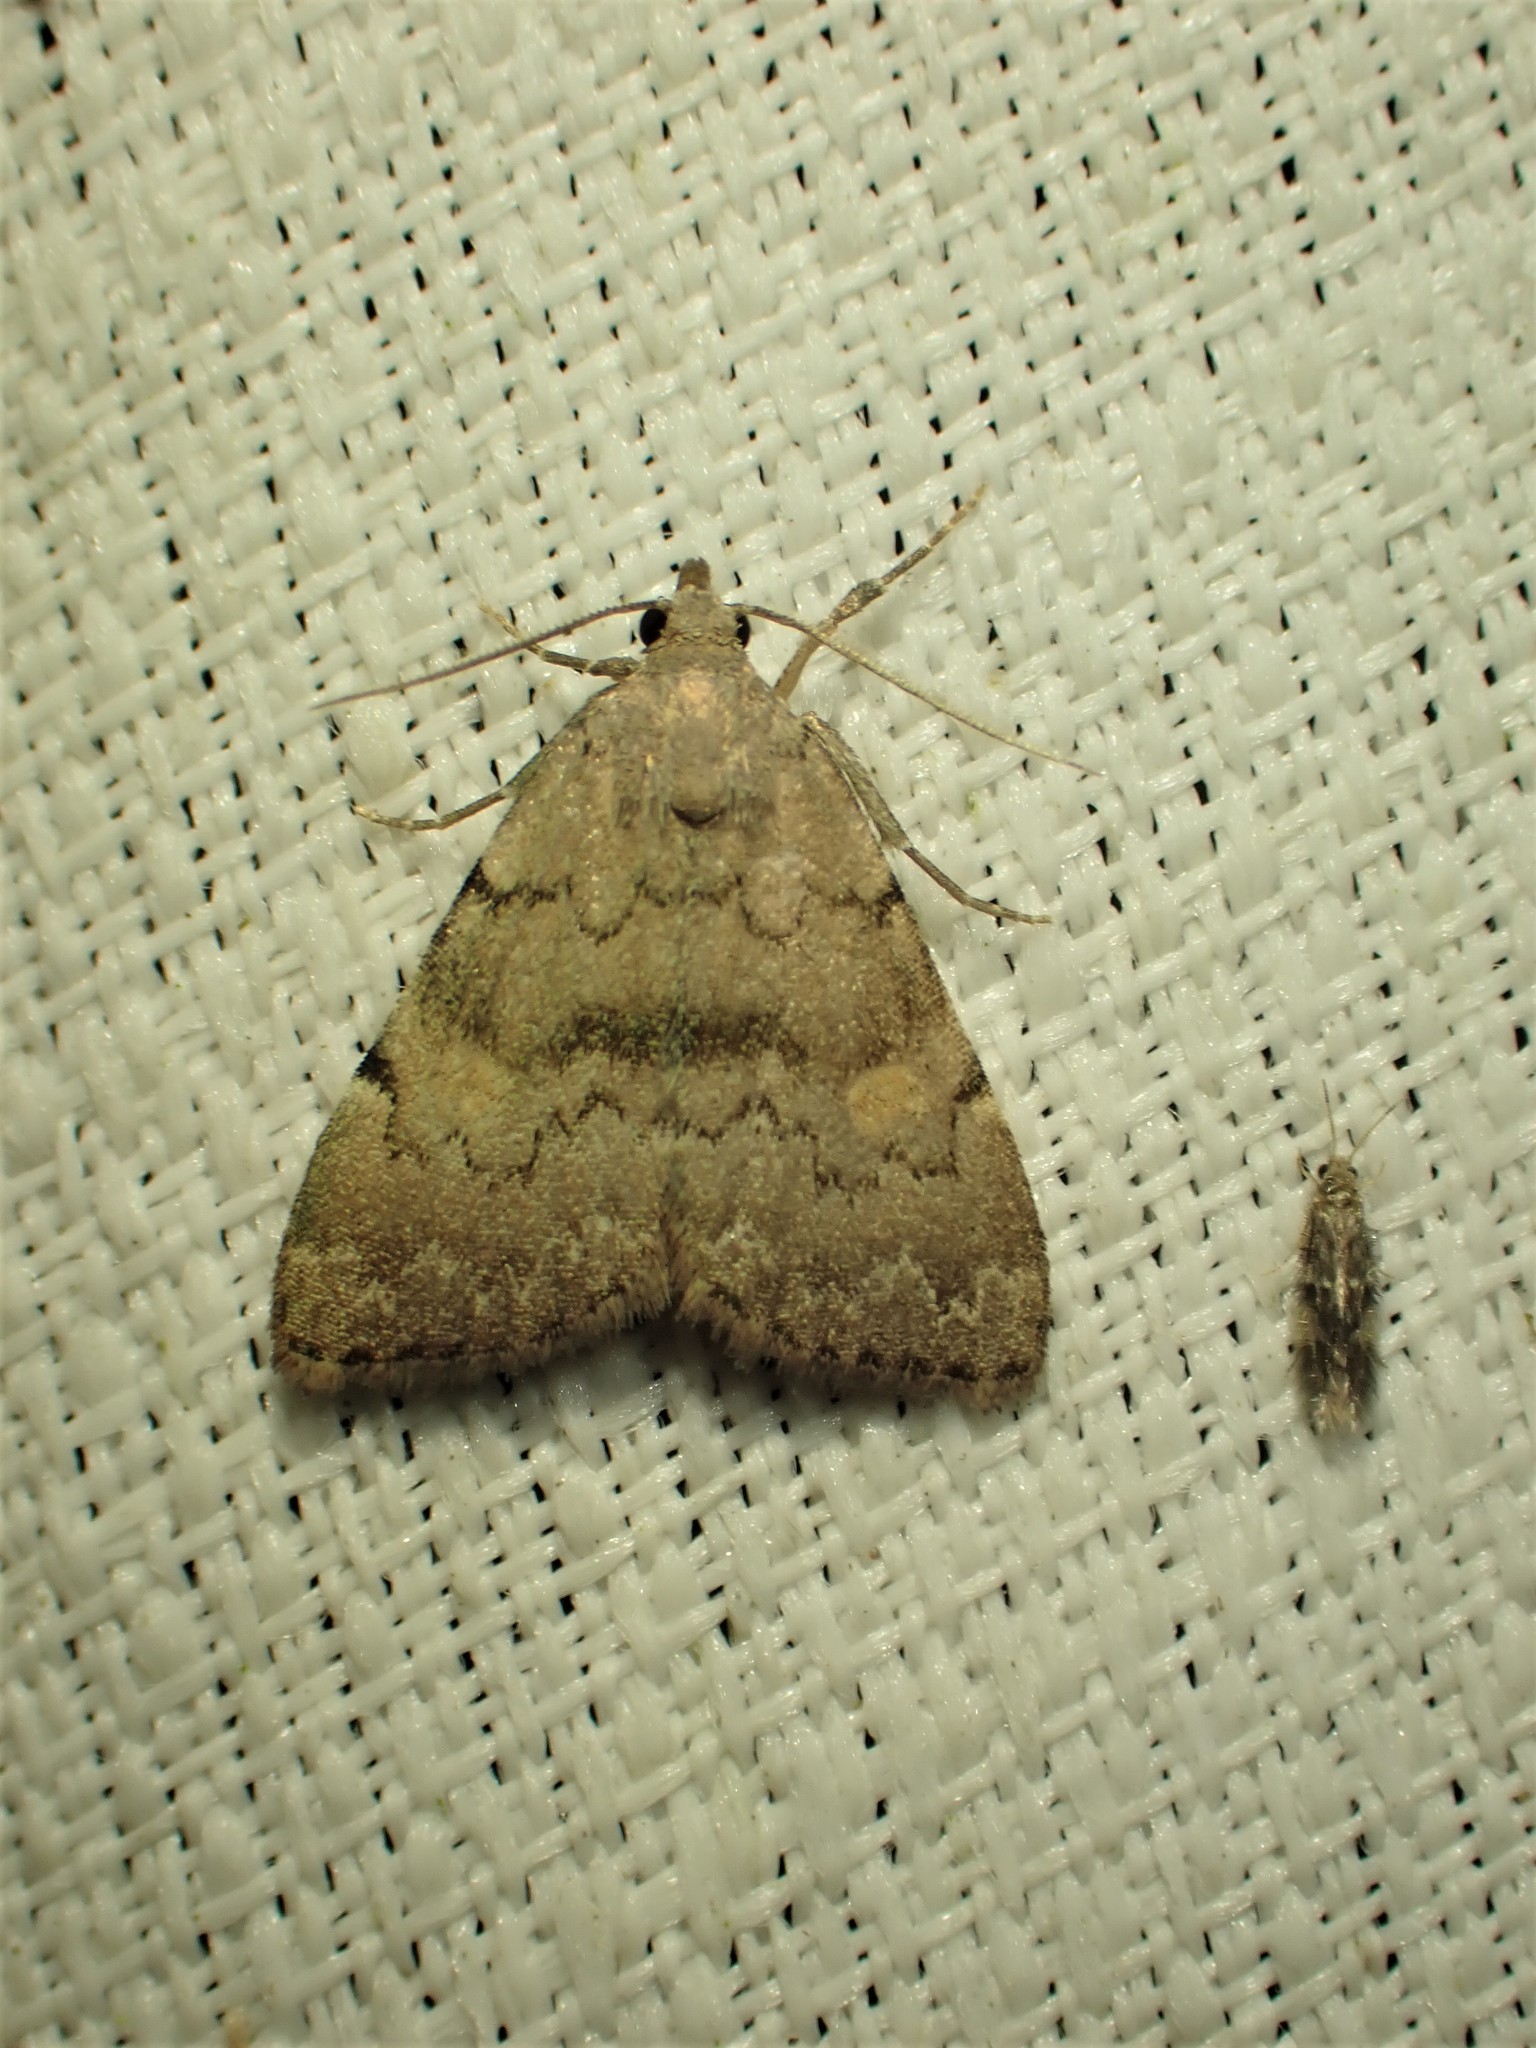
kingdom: Animalia
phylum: Arthropoda
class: Insecta
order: Lepidoptera
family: Erebidae
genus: Idia
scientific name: Idia aemula
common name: Common idia moth
